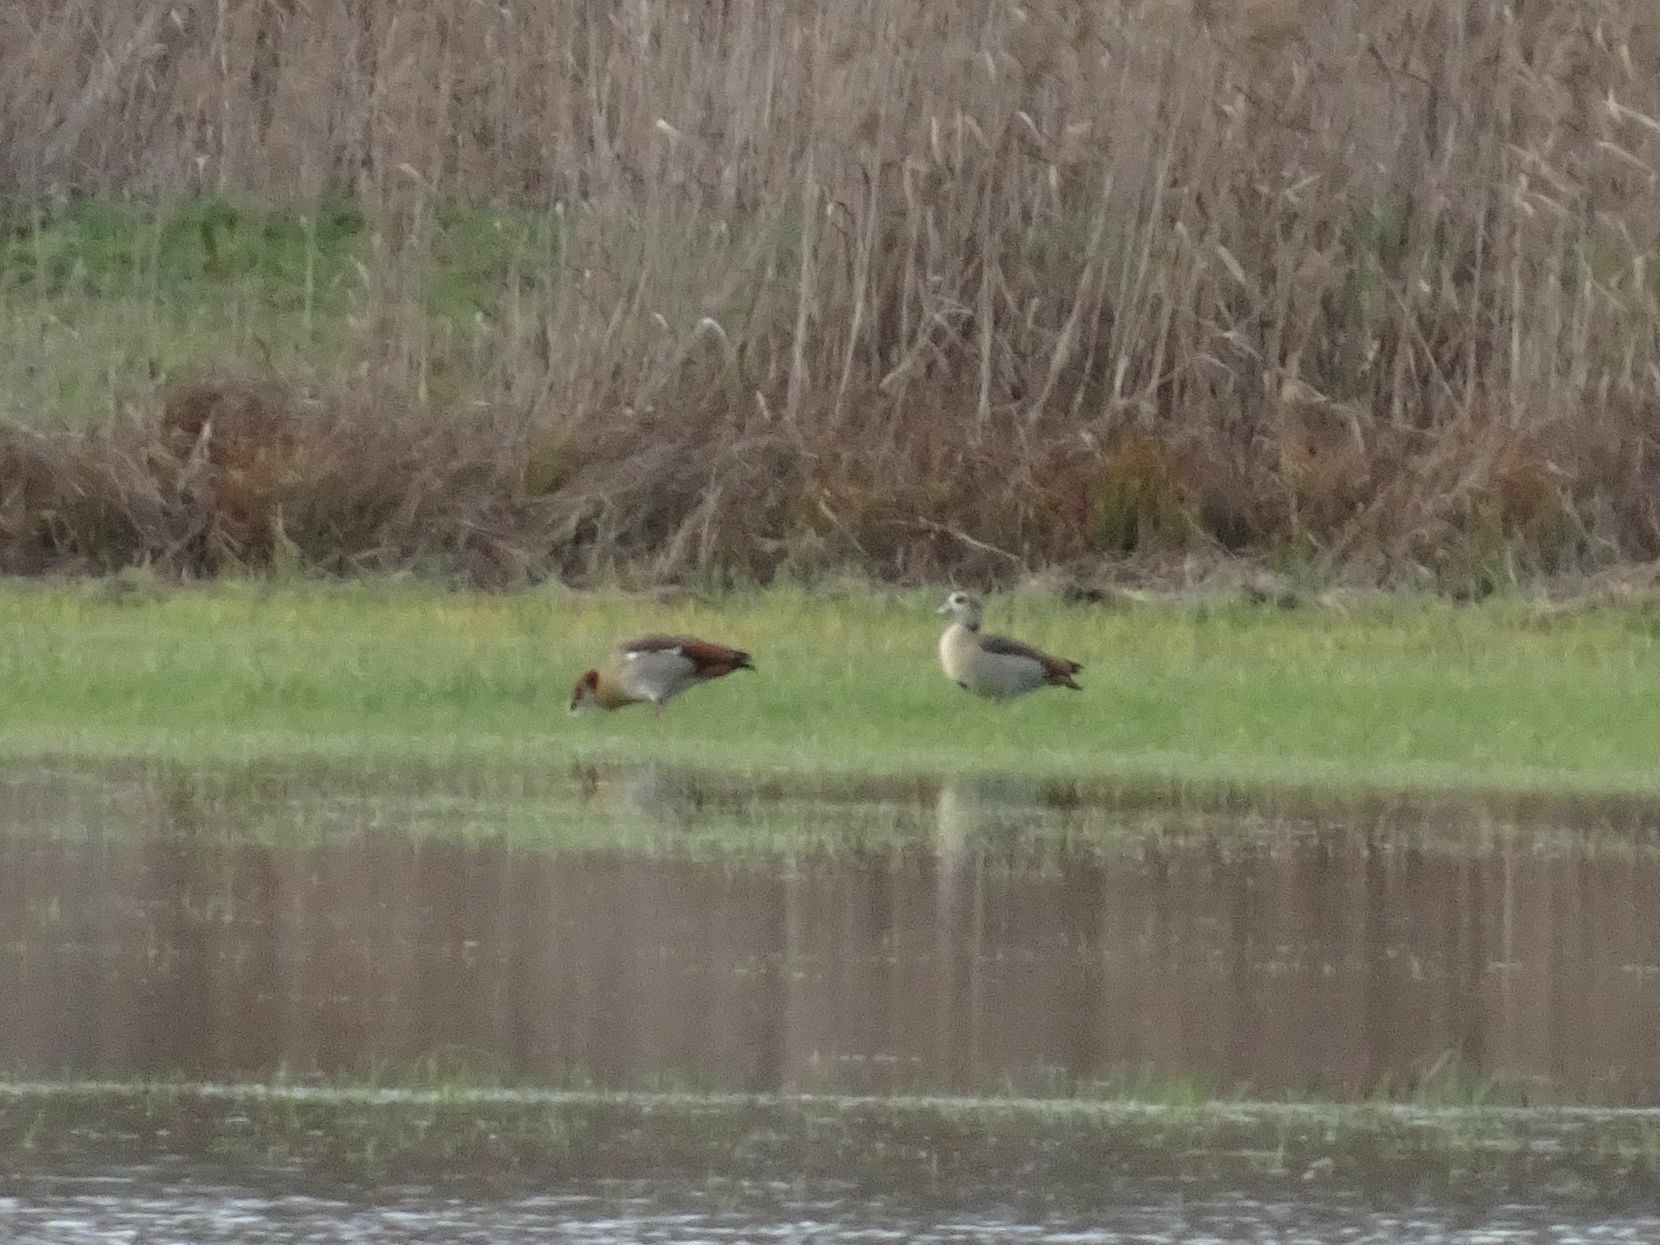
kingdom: Animalia
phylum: Chordata
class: Aves
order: Anseriformes
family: Anatidae
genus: Alopochen
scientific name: Alopochen aegyptiaca
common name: Egyptian goose
